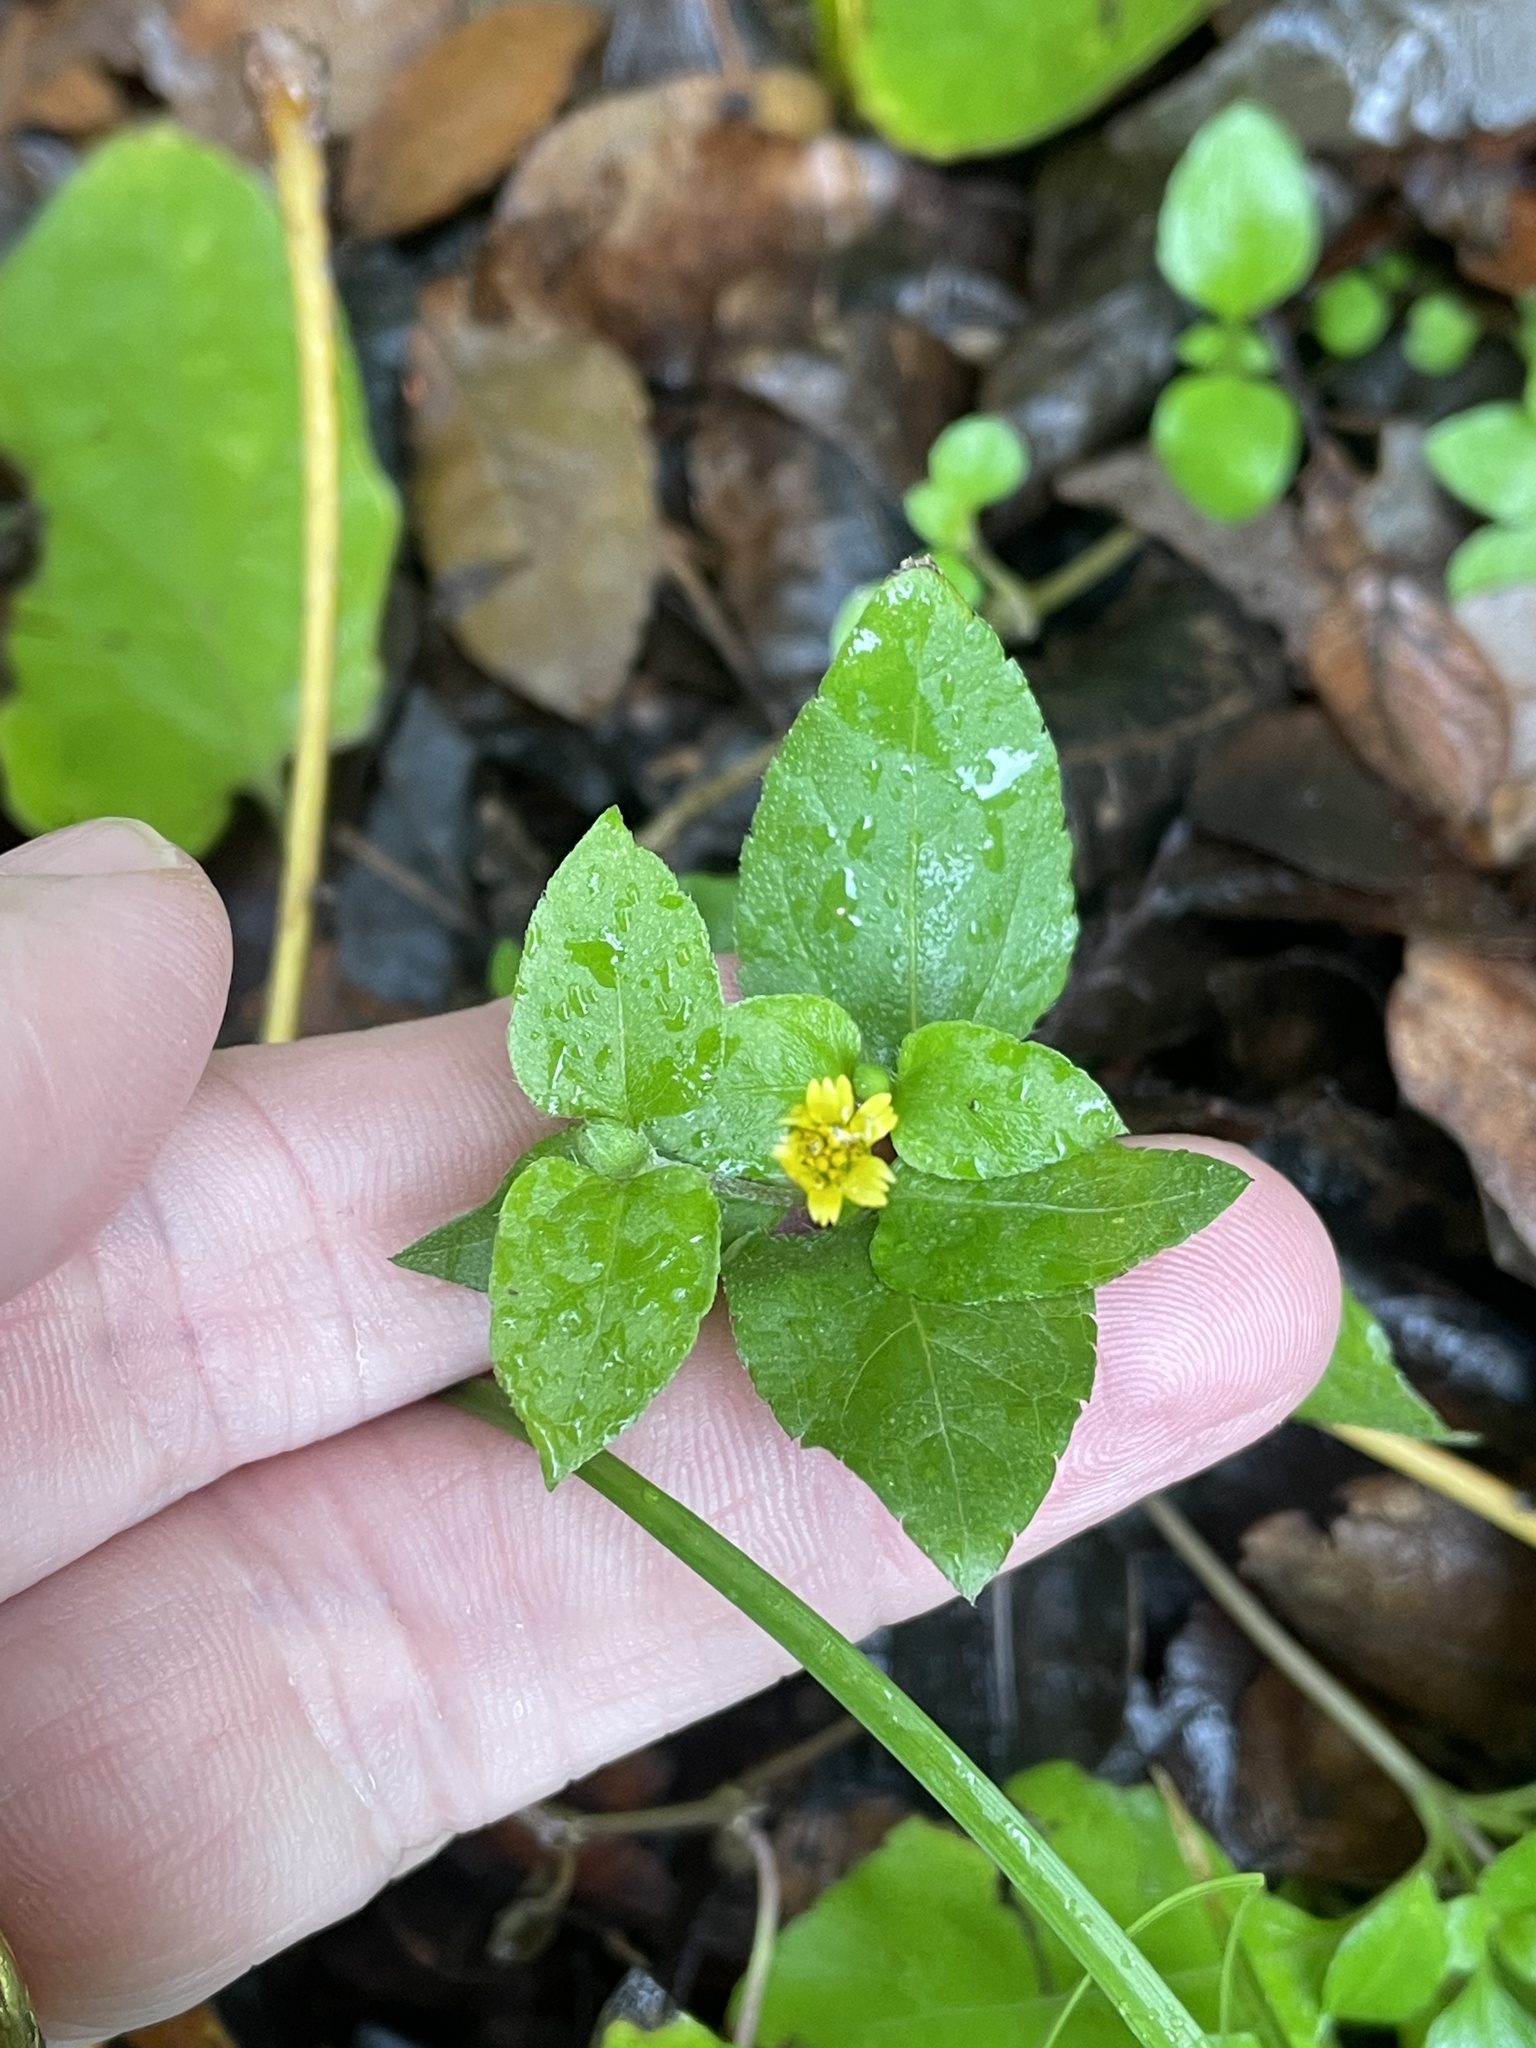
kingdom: Plantae
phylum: Tracheophyta
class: Magnoliopsida
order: Asterales
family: Asteraceae
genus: Calyptocarpus
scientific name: Calyptocarpus vialis
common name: Straggler daisy
